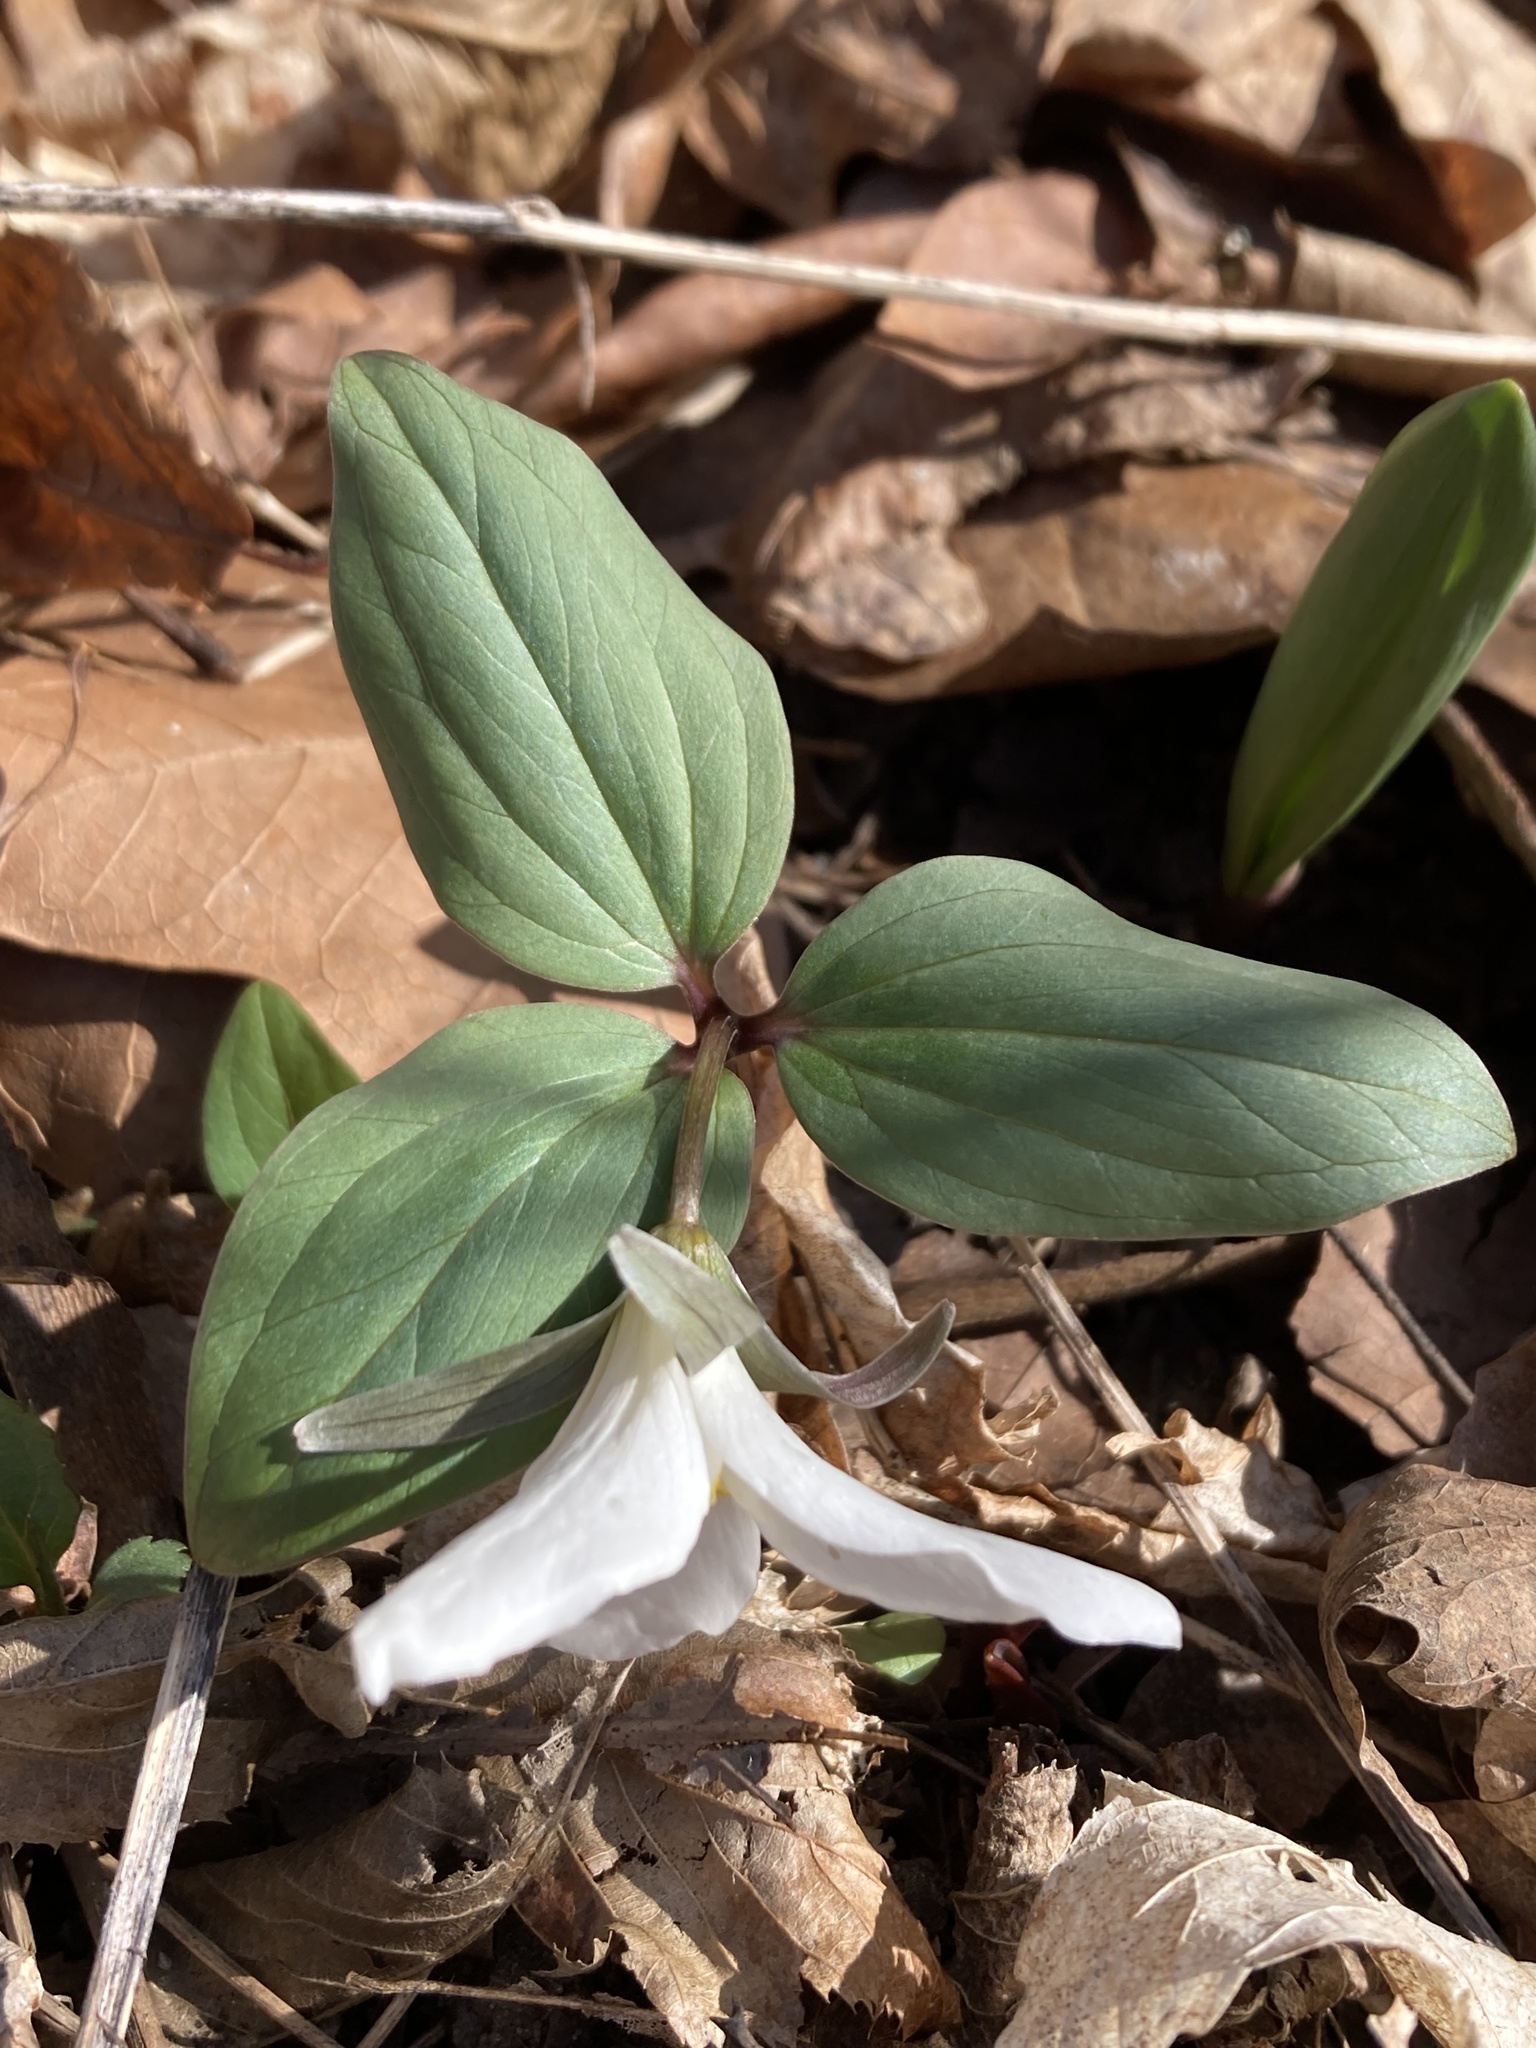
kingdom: Plantae
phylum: Tracheophyta
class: Liliopsida
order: Liliales
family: Melanthiaceae
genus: Trillium
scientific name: Trillium nivale
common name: Dwarf white trillium
